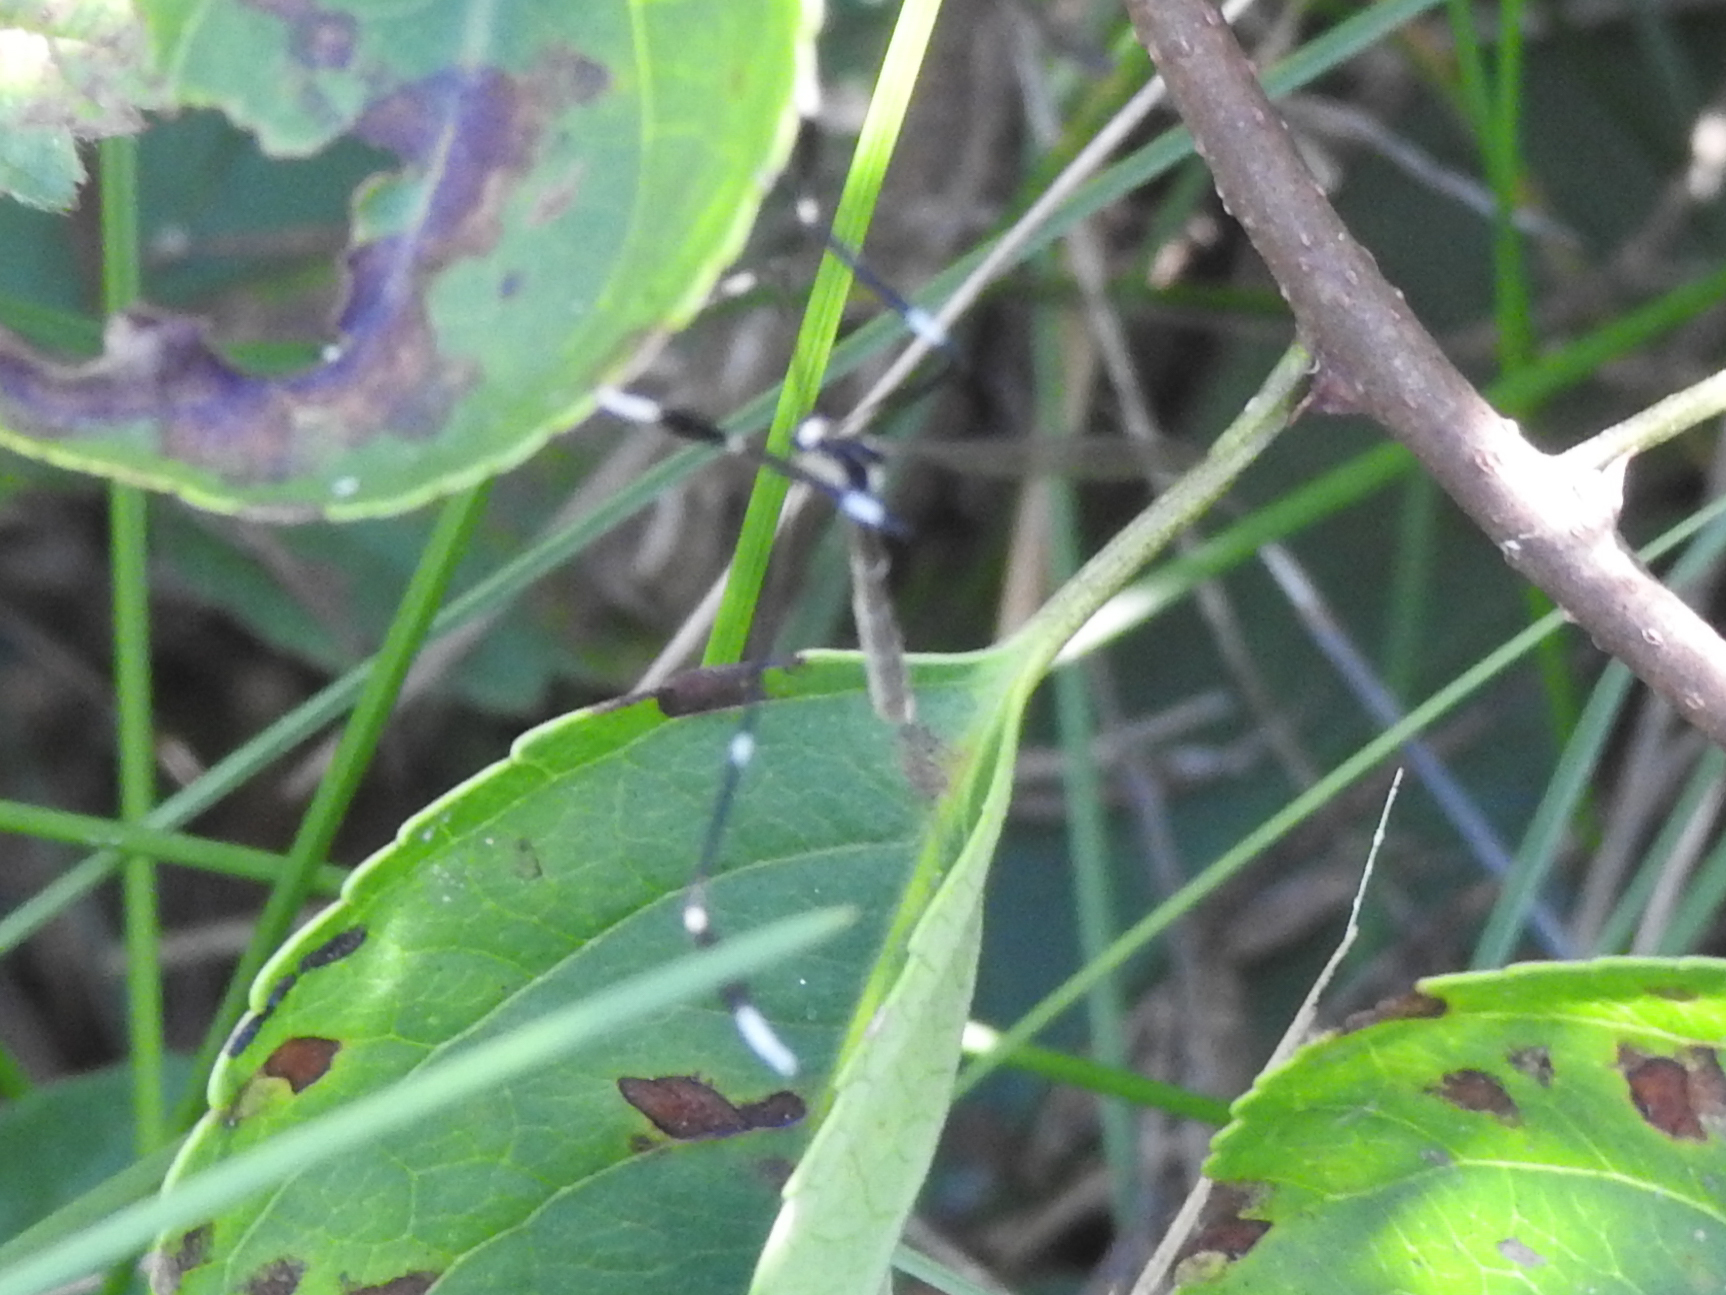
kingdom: Animalia
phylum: Arthropoda
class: Insecta
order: Diptera
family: Ptychopteridae
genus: Bittacomorpha
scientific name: Bittacomorpha clavipes
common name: Eastern phantom crane fly
